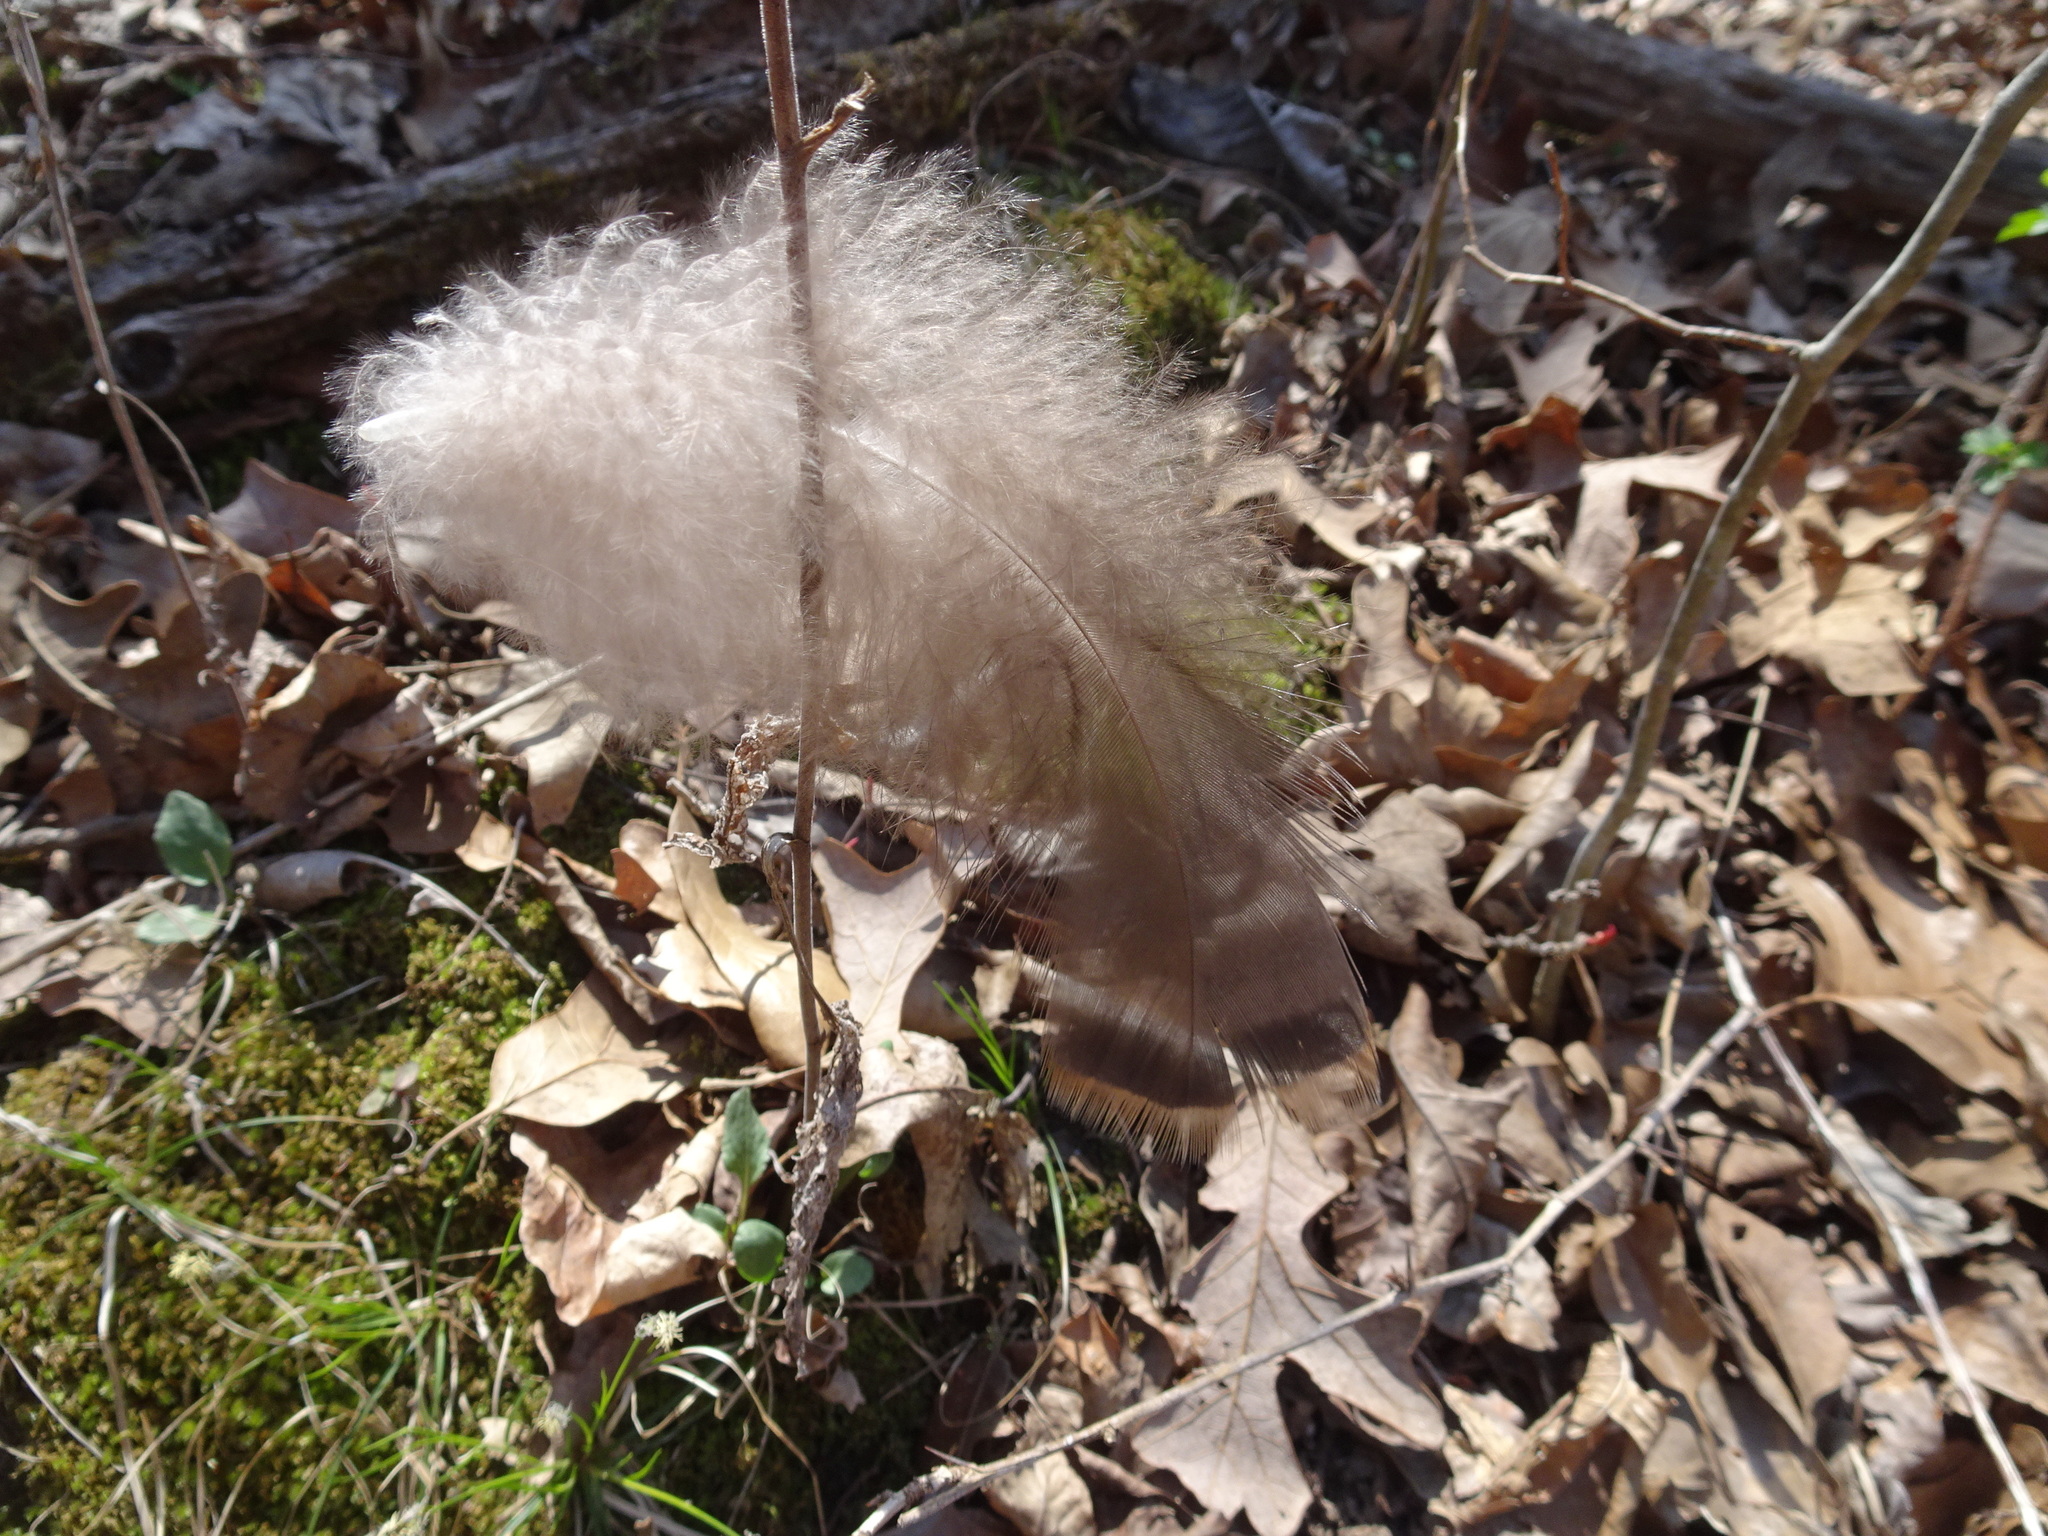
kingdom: Animalia
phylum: Chordata
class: Aves
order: Galliformes
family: Phasianidae
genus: Meleagris
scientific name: Meleagris gallopavo
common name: Wild turkey
